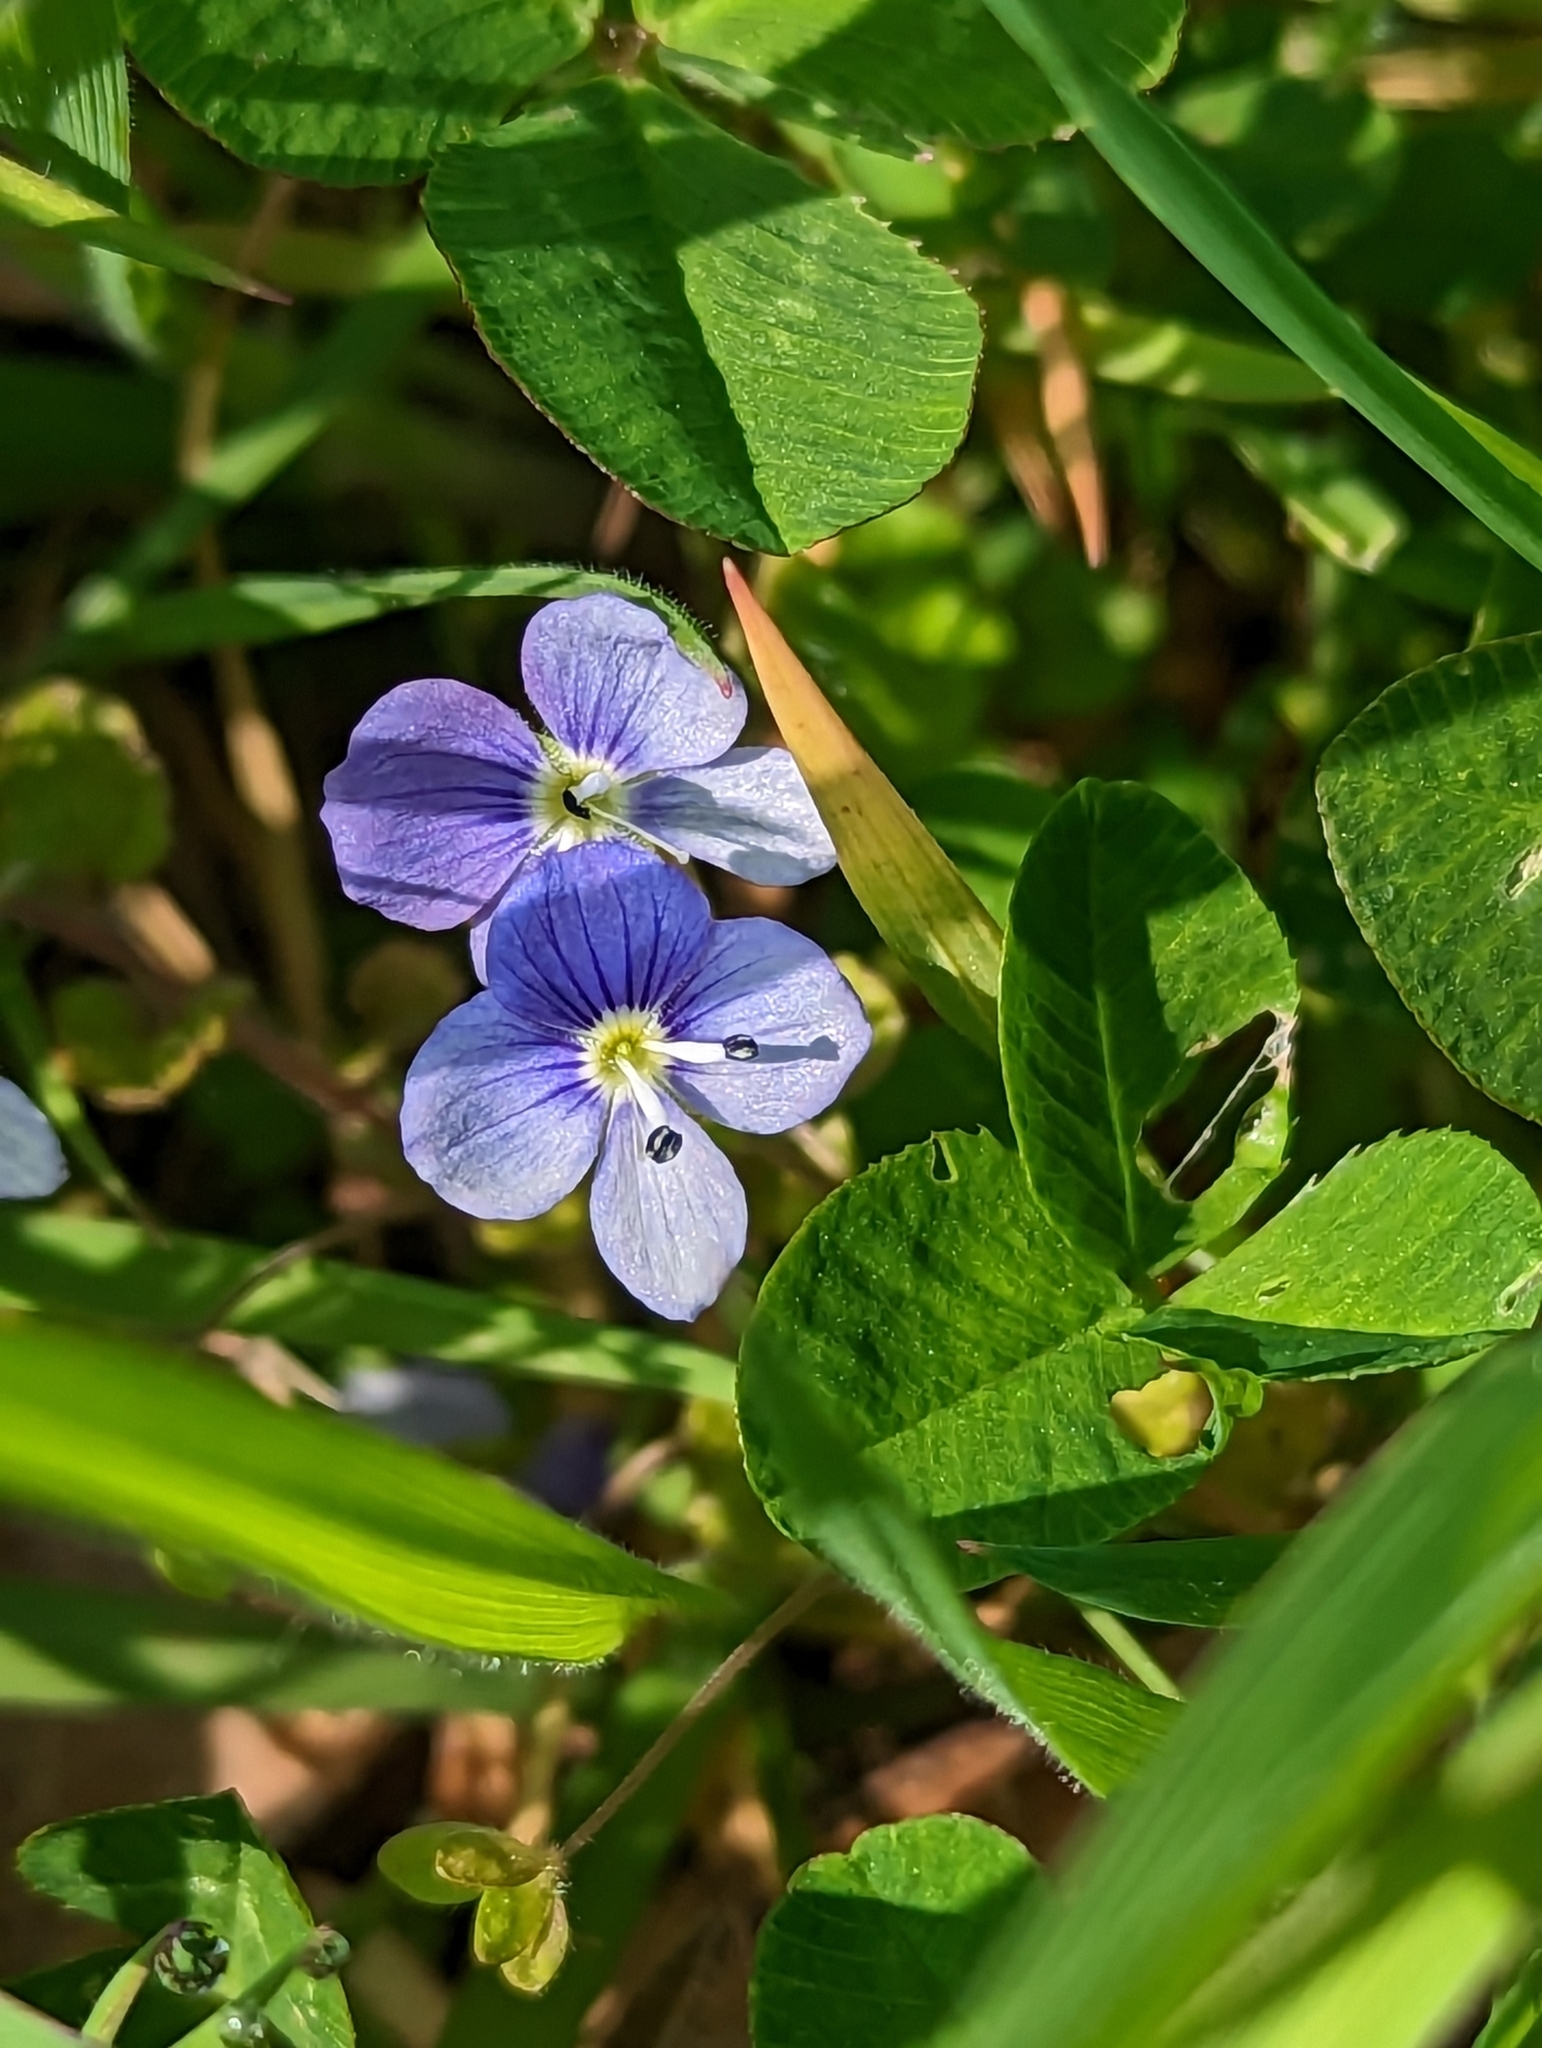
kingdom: Plantae
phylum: Tracheophyta
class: Magnoliopsida
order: Lamiales
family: Plantaginaceae
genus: Veronica
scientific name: Veronica filiformis
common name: Slender speedwell
